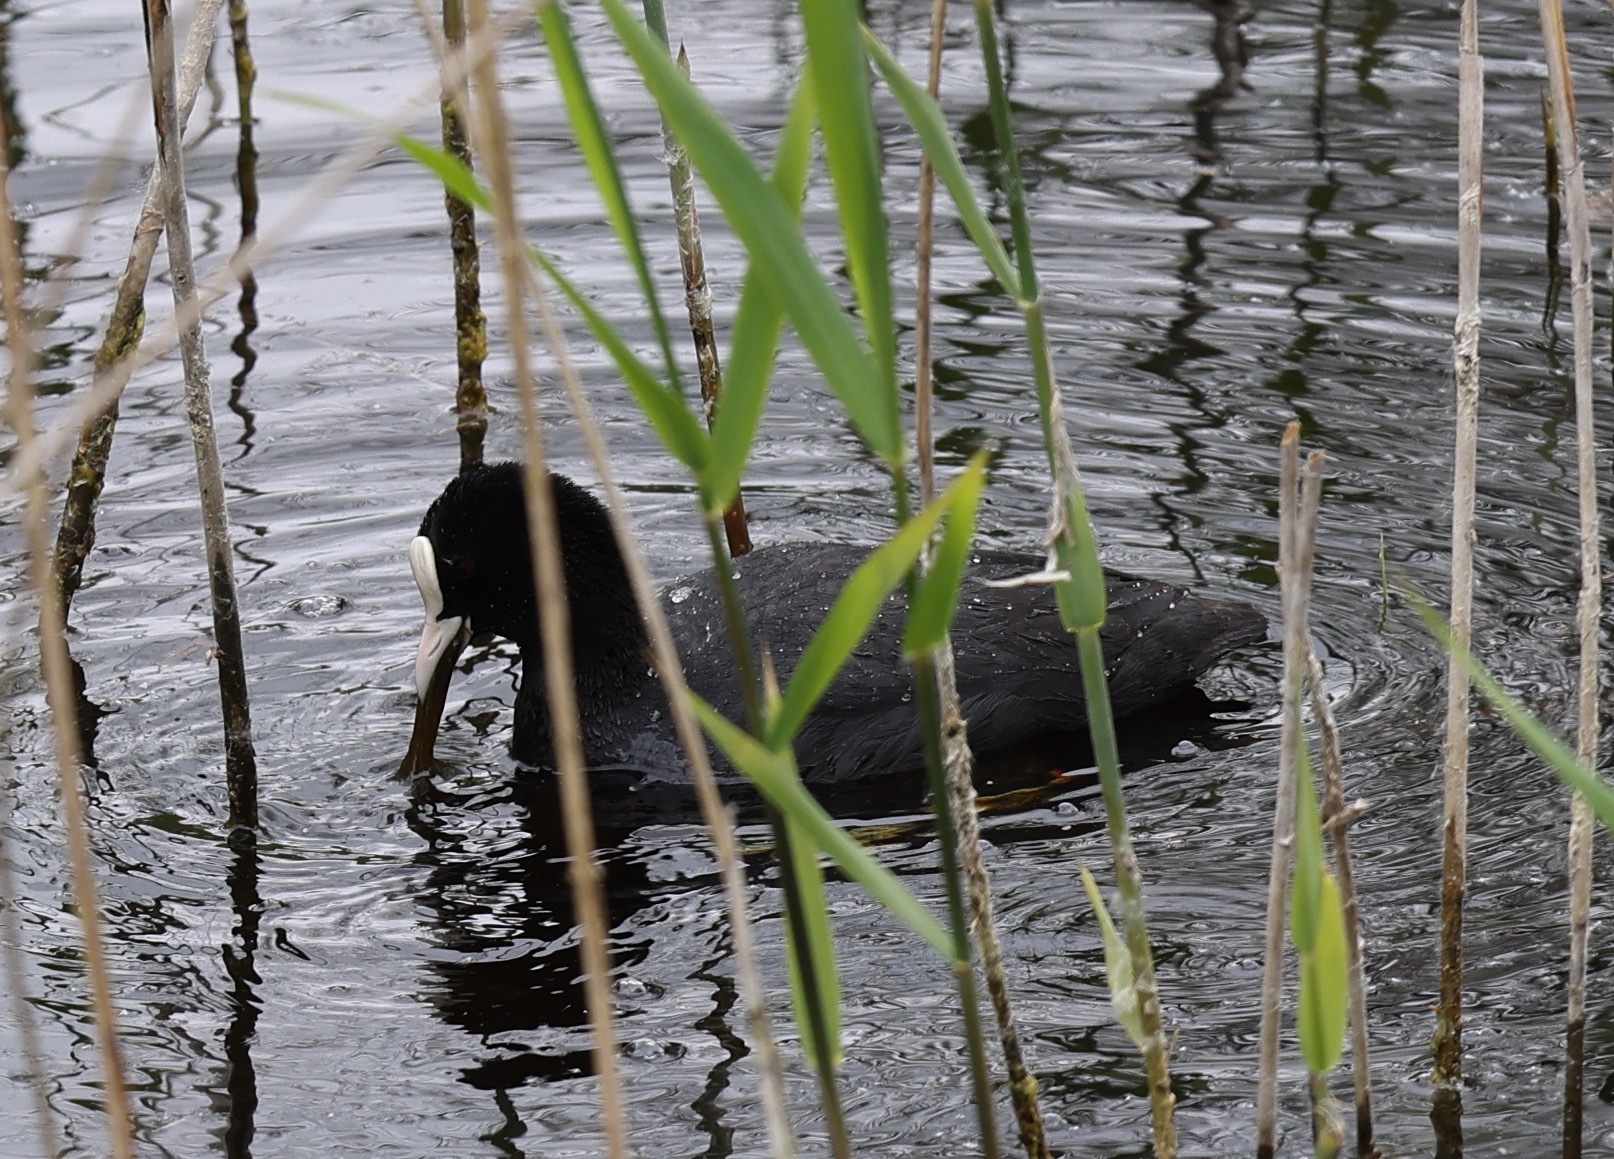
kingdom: Animalia
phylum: Chordata
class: Aves
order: Gruiformes
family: Rallidae
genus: Fulica
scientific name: Fulica atra
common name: Eurasian coot
